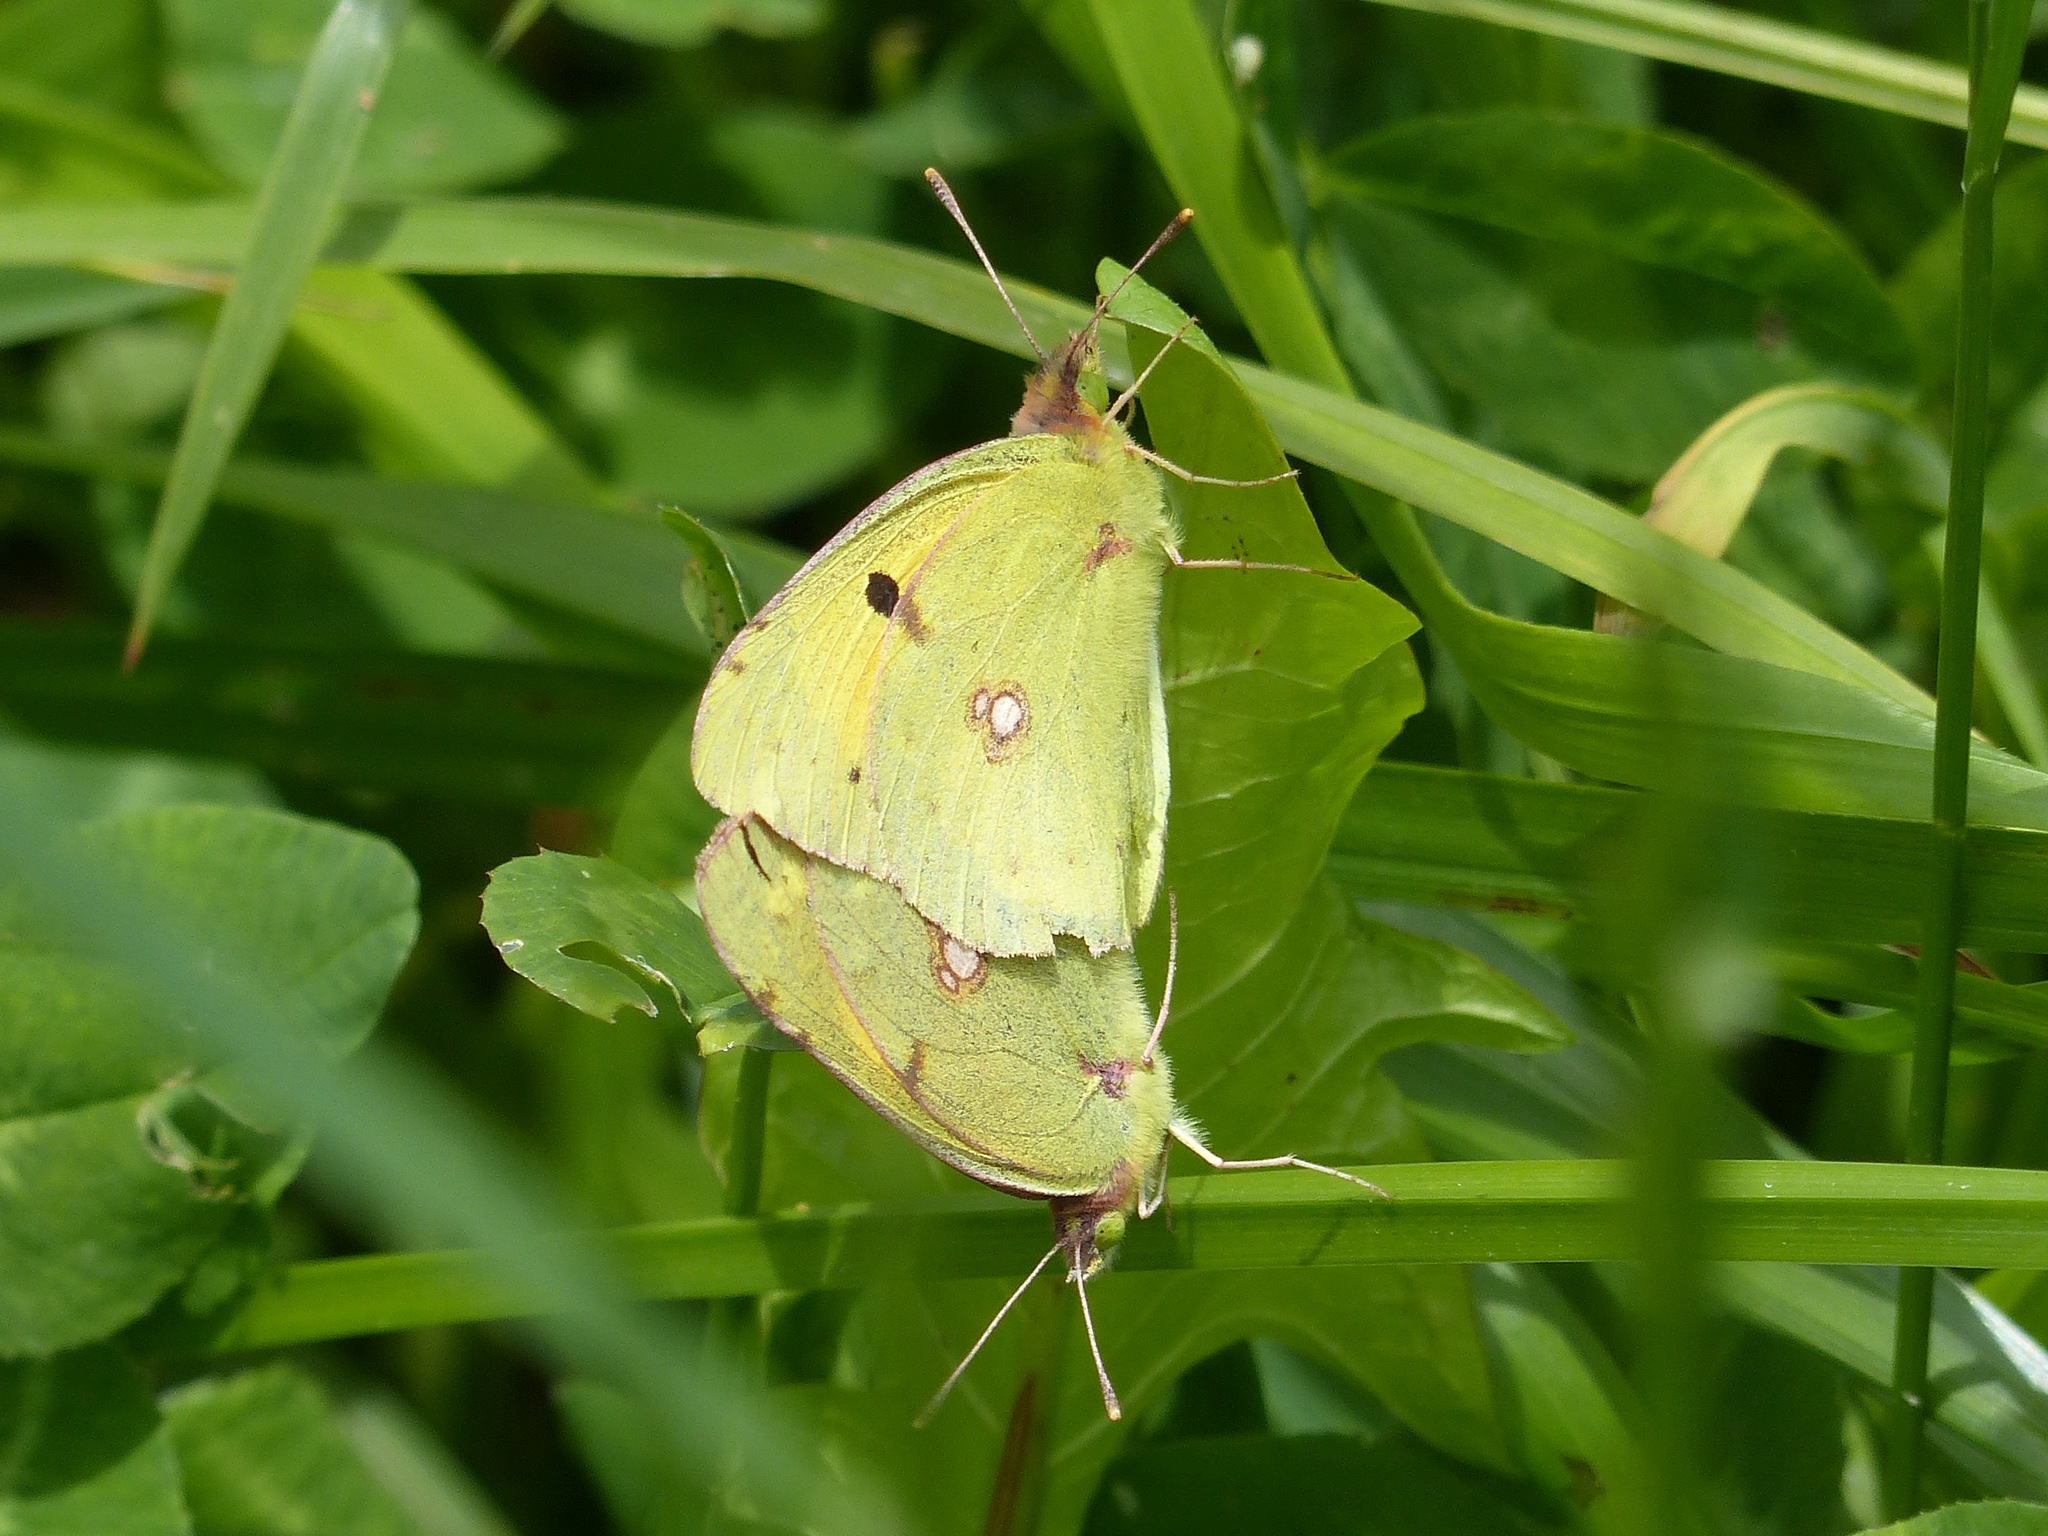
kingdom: Animalia
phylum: Arthropoda
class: Insecta
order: Lepidoptera
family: Pieridae
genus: Colias
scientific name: Colias croceus
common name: Clouded yellow
